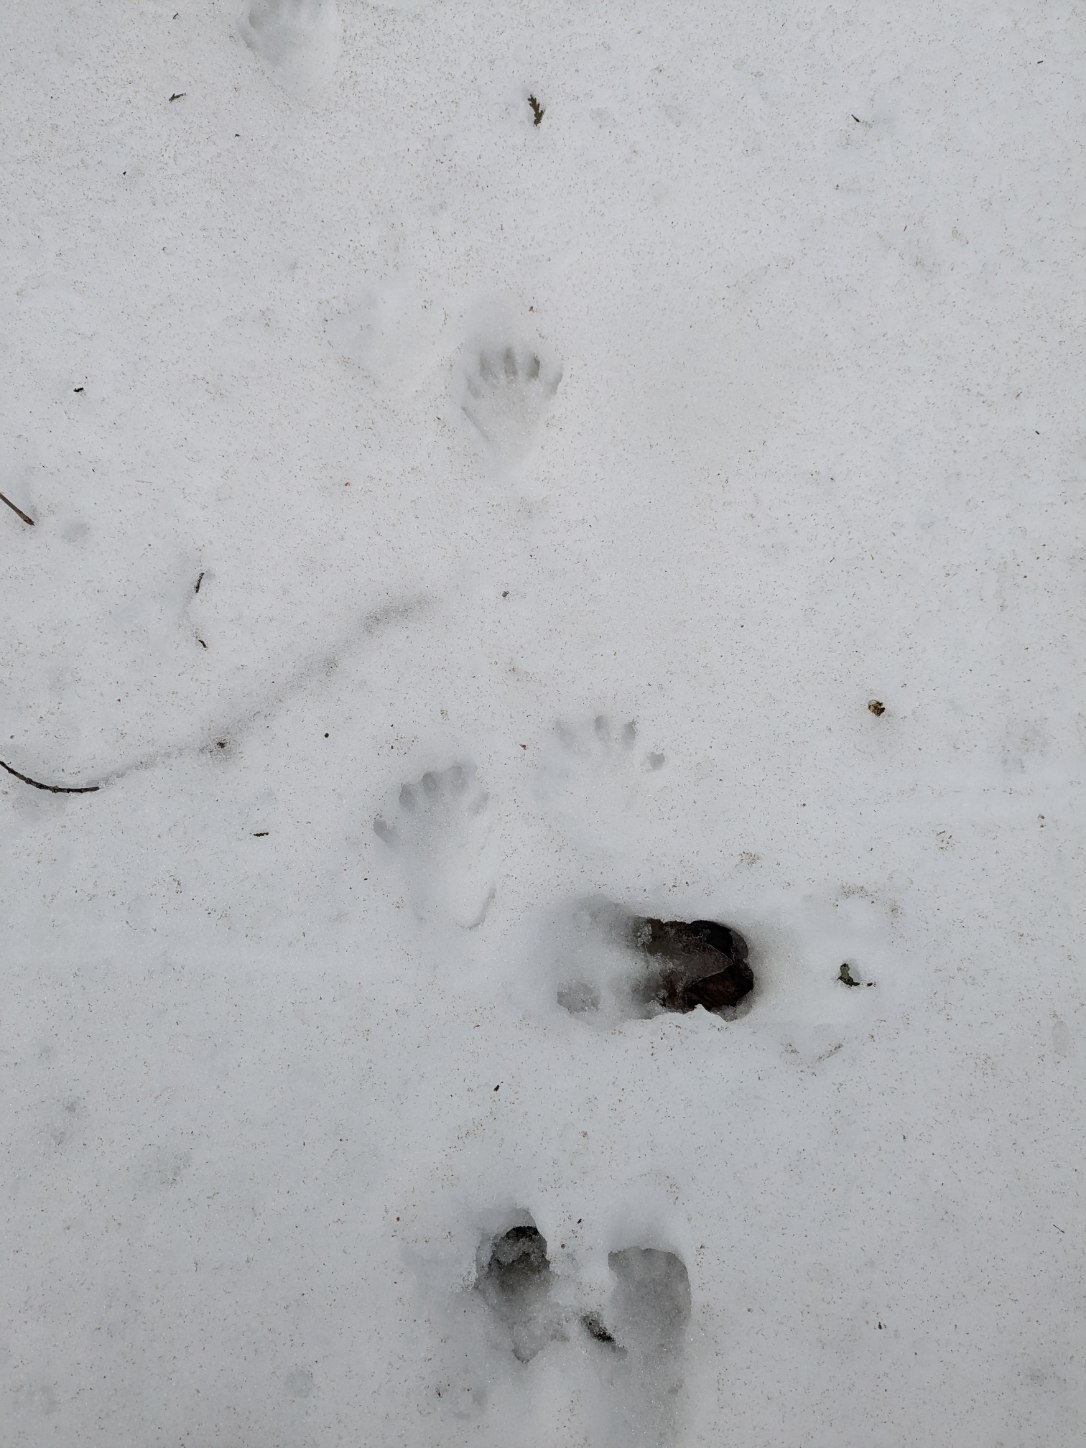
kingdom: Animalia
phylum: Chordata
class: Mammalia
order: Carnivora
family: Procyonidae
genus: Procyon
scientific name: Procyon lotor
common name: Raccoon
